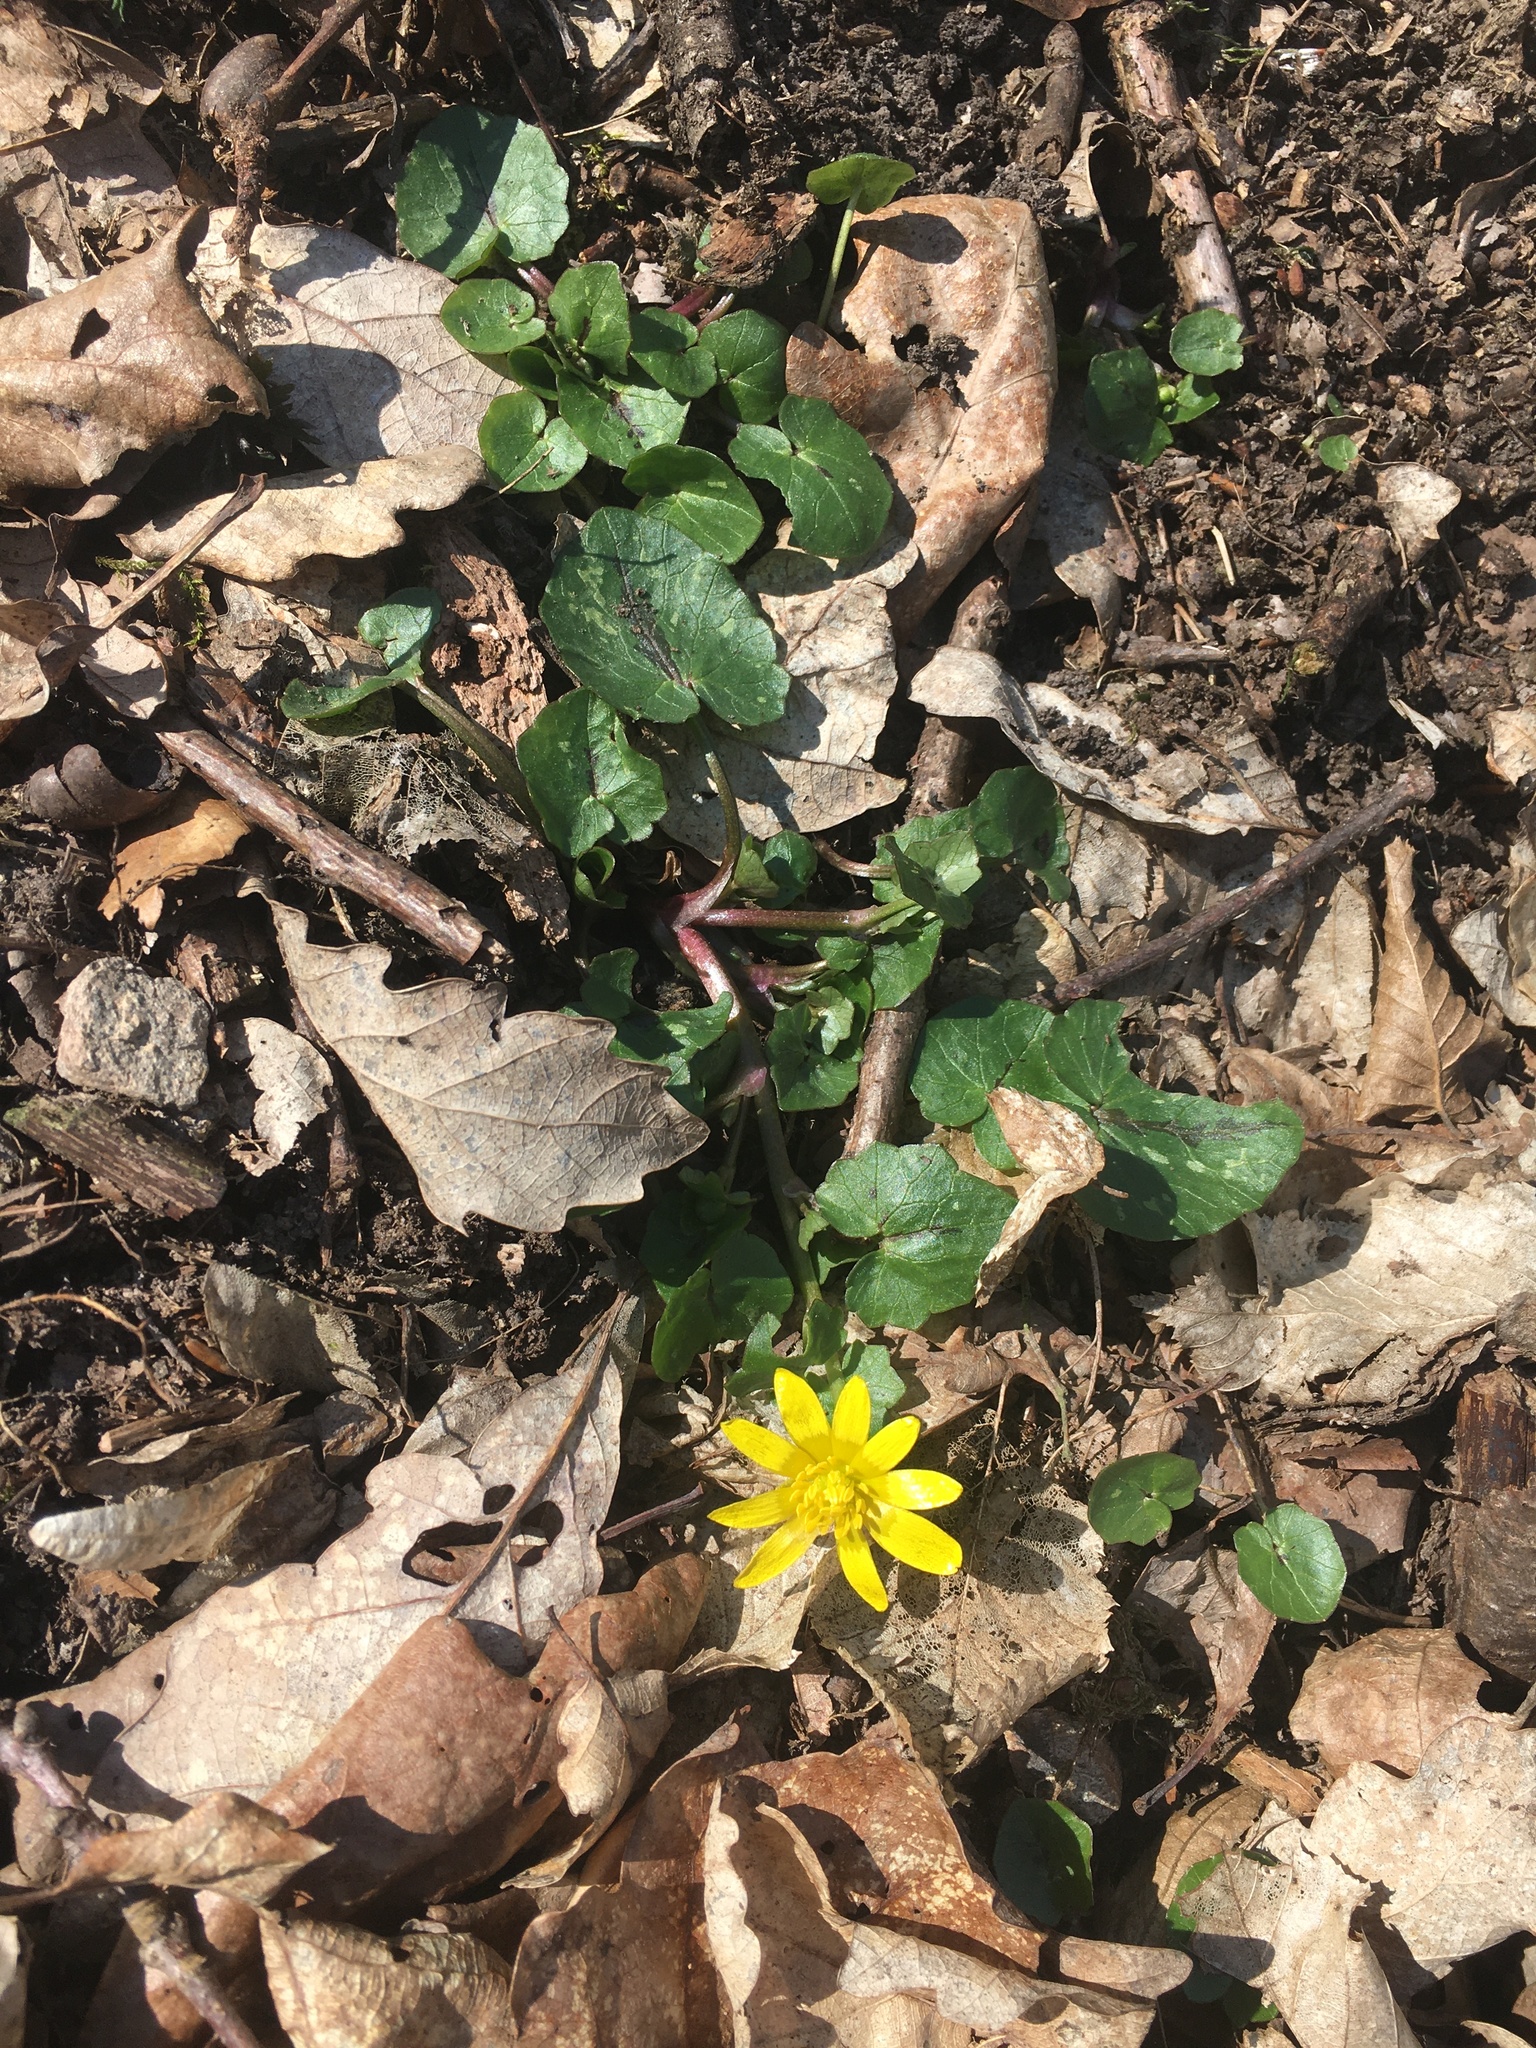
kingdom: Plantae
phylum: Tracheophyta
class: Magnoliopsida
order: Ranunculales
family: Ranunculaceae
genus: Ficaria
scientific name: Ficaria verna
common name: Lesser celandine
